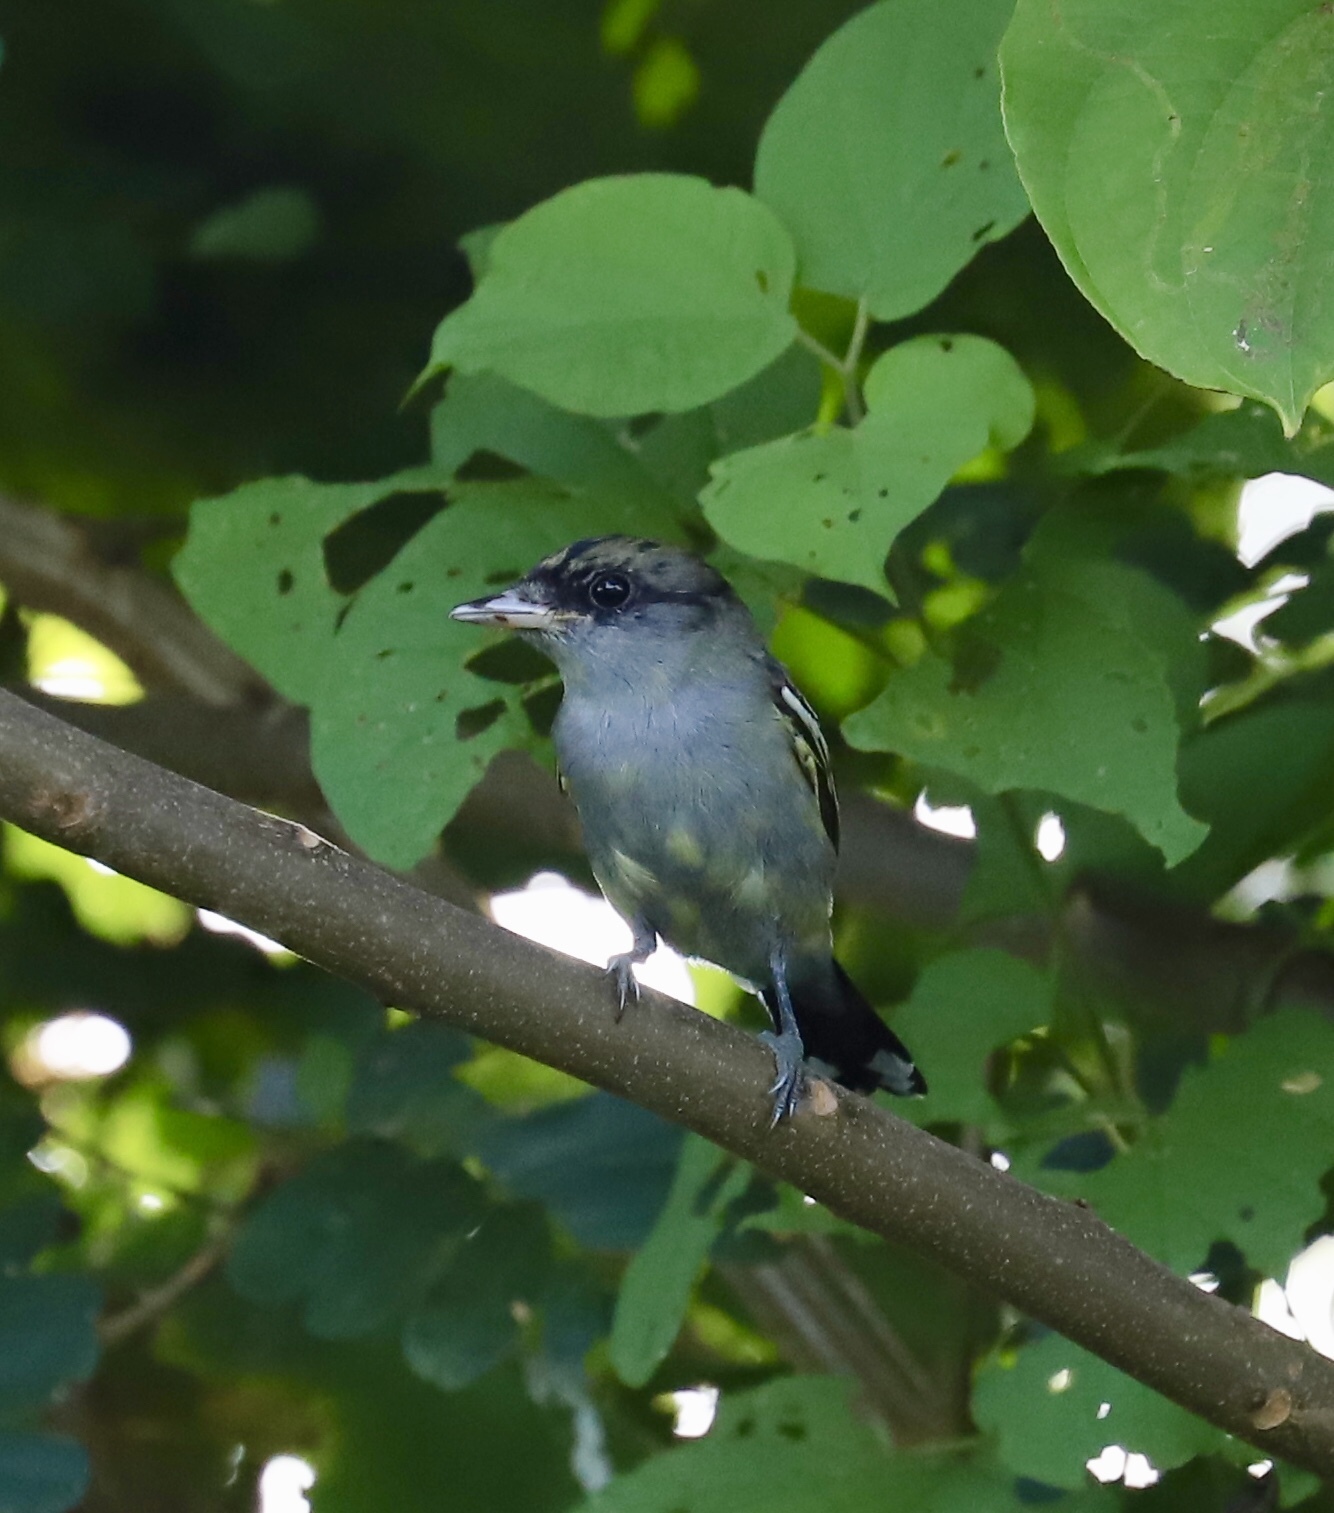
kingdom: Animalia
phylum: Chordata
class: Aves
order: Passeriformes
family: Cotingidae
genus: Pachyramphus
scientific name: Pachyramphus polychopterus
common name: White-winged becard
